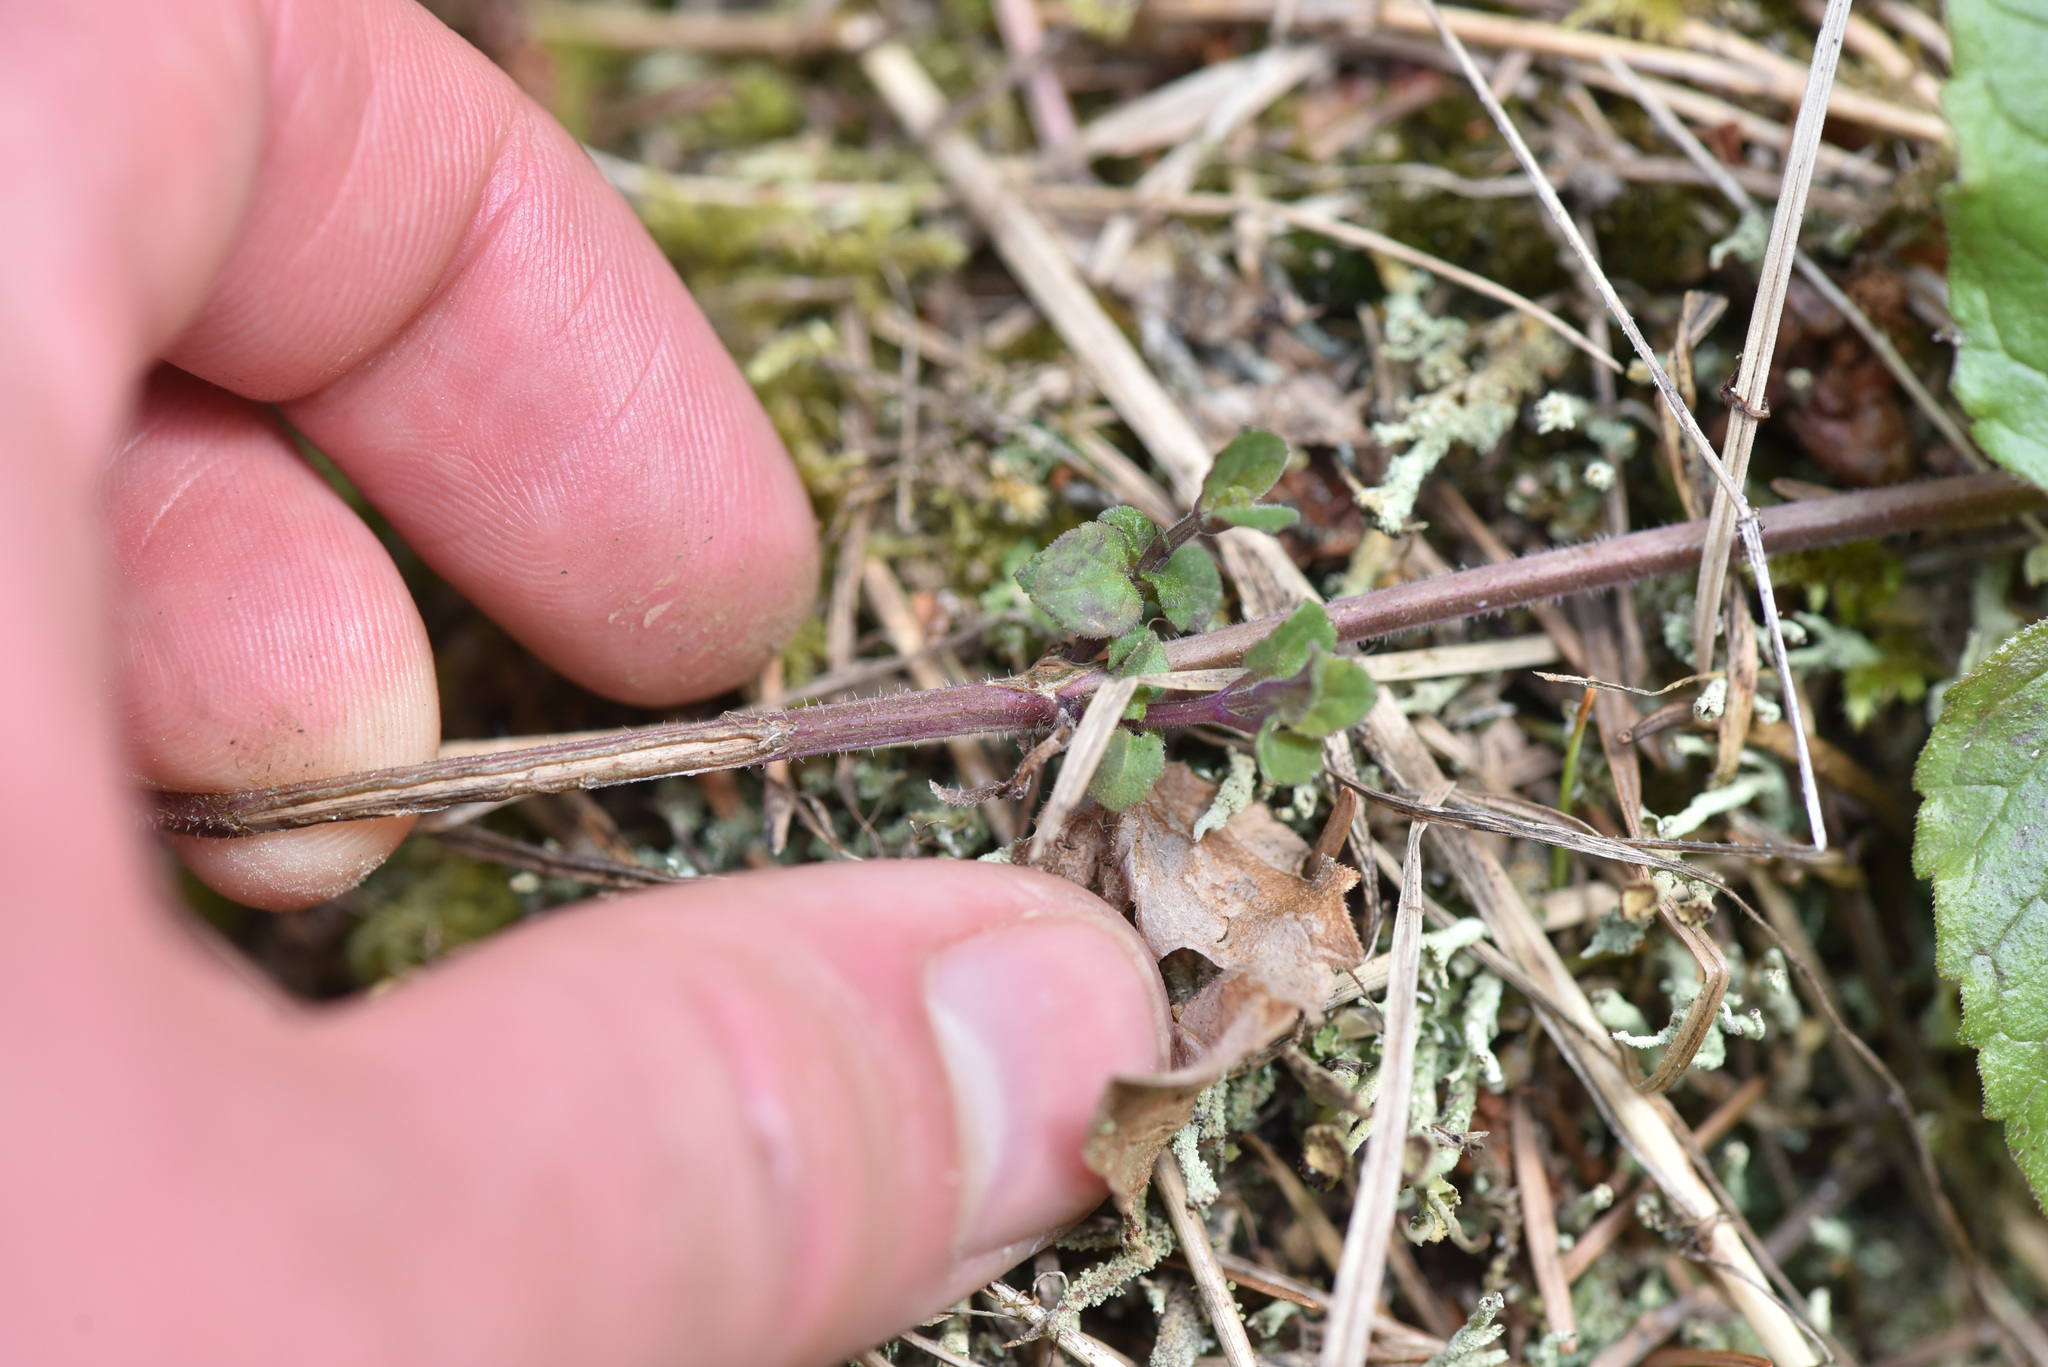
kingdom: Plantae
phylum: Tracheophyta
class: Magnoliopsida
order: Lamiales
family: Lamiaceae
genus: Micromeria
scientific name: Micromeria douglasii
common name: Yerba buena
